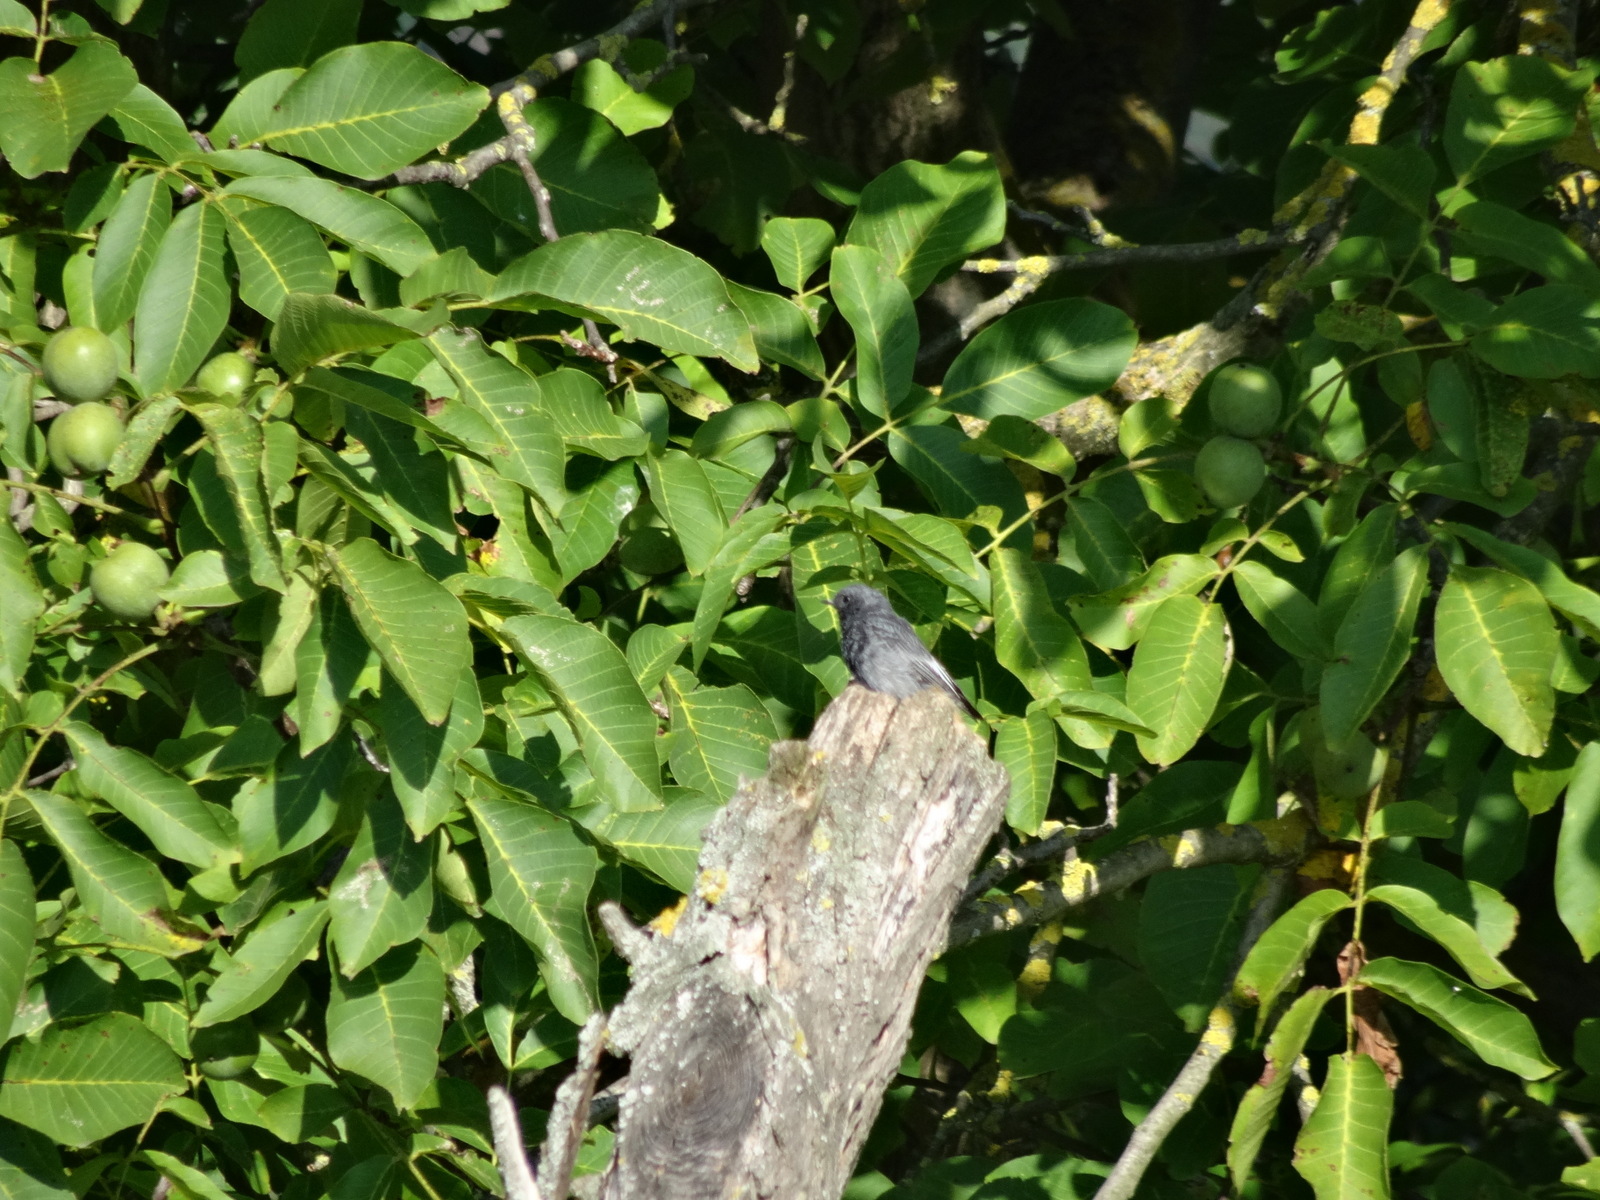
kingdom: Animalia
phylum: Chordata
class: Aves
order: Passeriformes
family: Muscicapidae
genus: Phoenicurus
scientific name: Phoenicurus ochruros
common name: Black redstart
